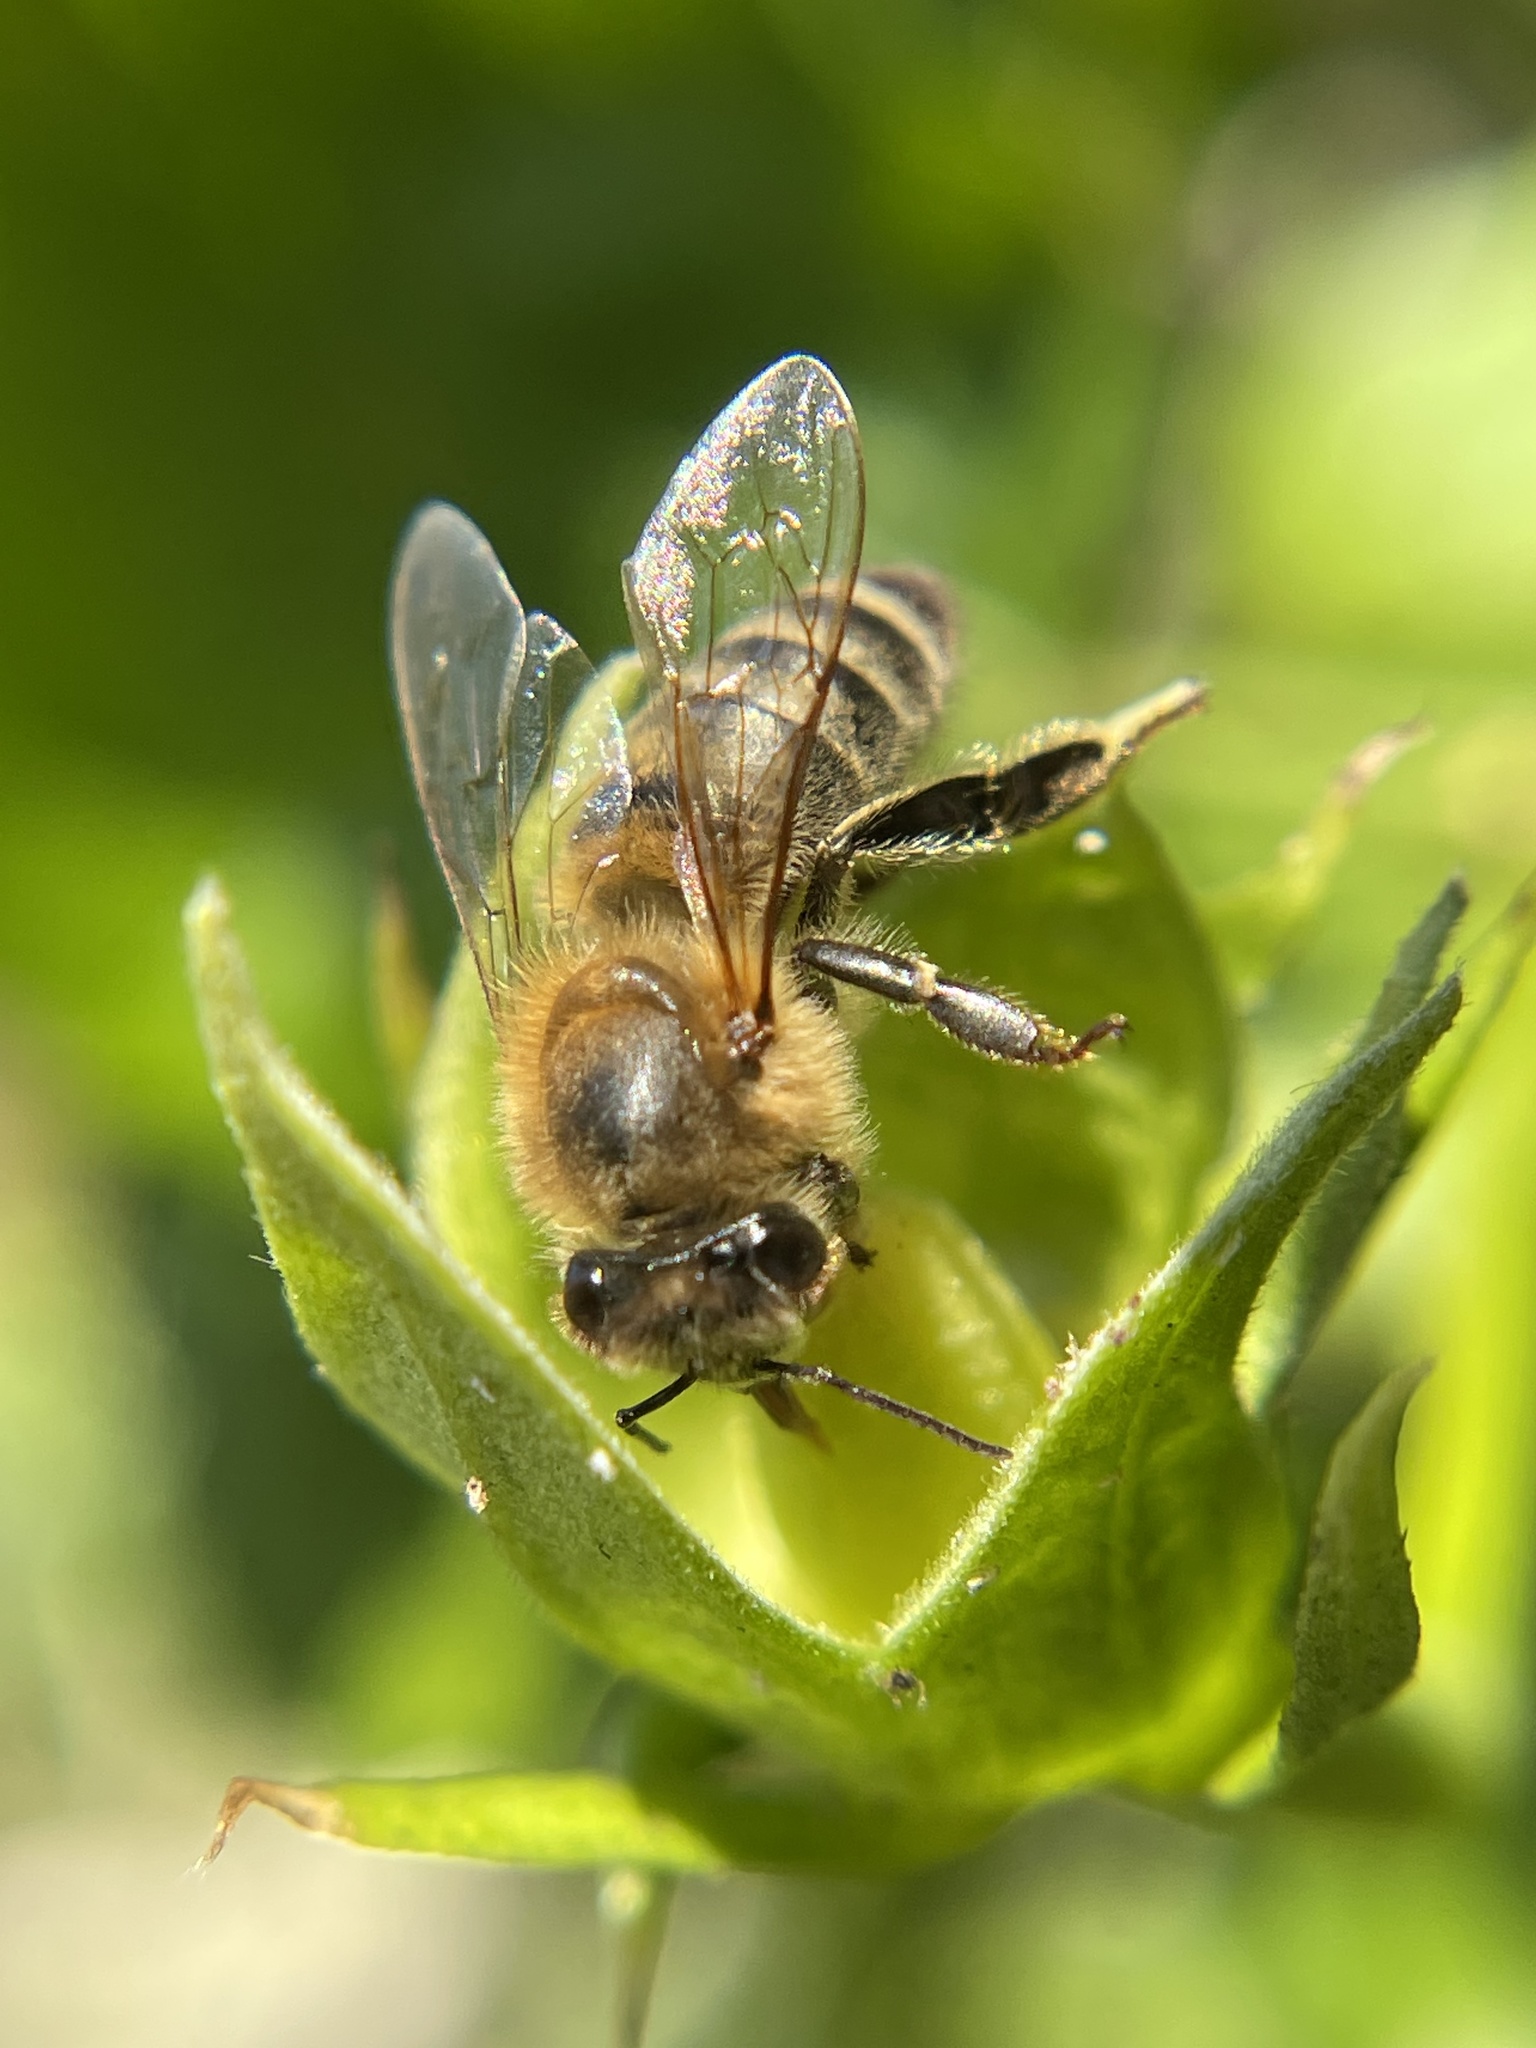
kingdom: Animalia
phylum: Arthropoda
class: Insecta
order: Hymenoptera
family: Apidae
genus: Apis
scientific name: Apis mellifera
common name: Honey bee
